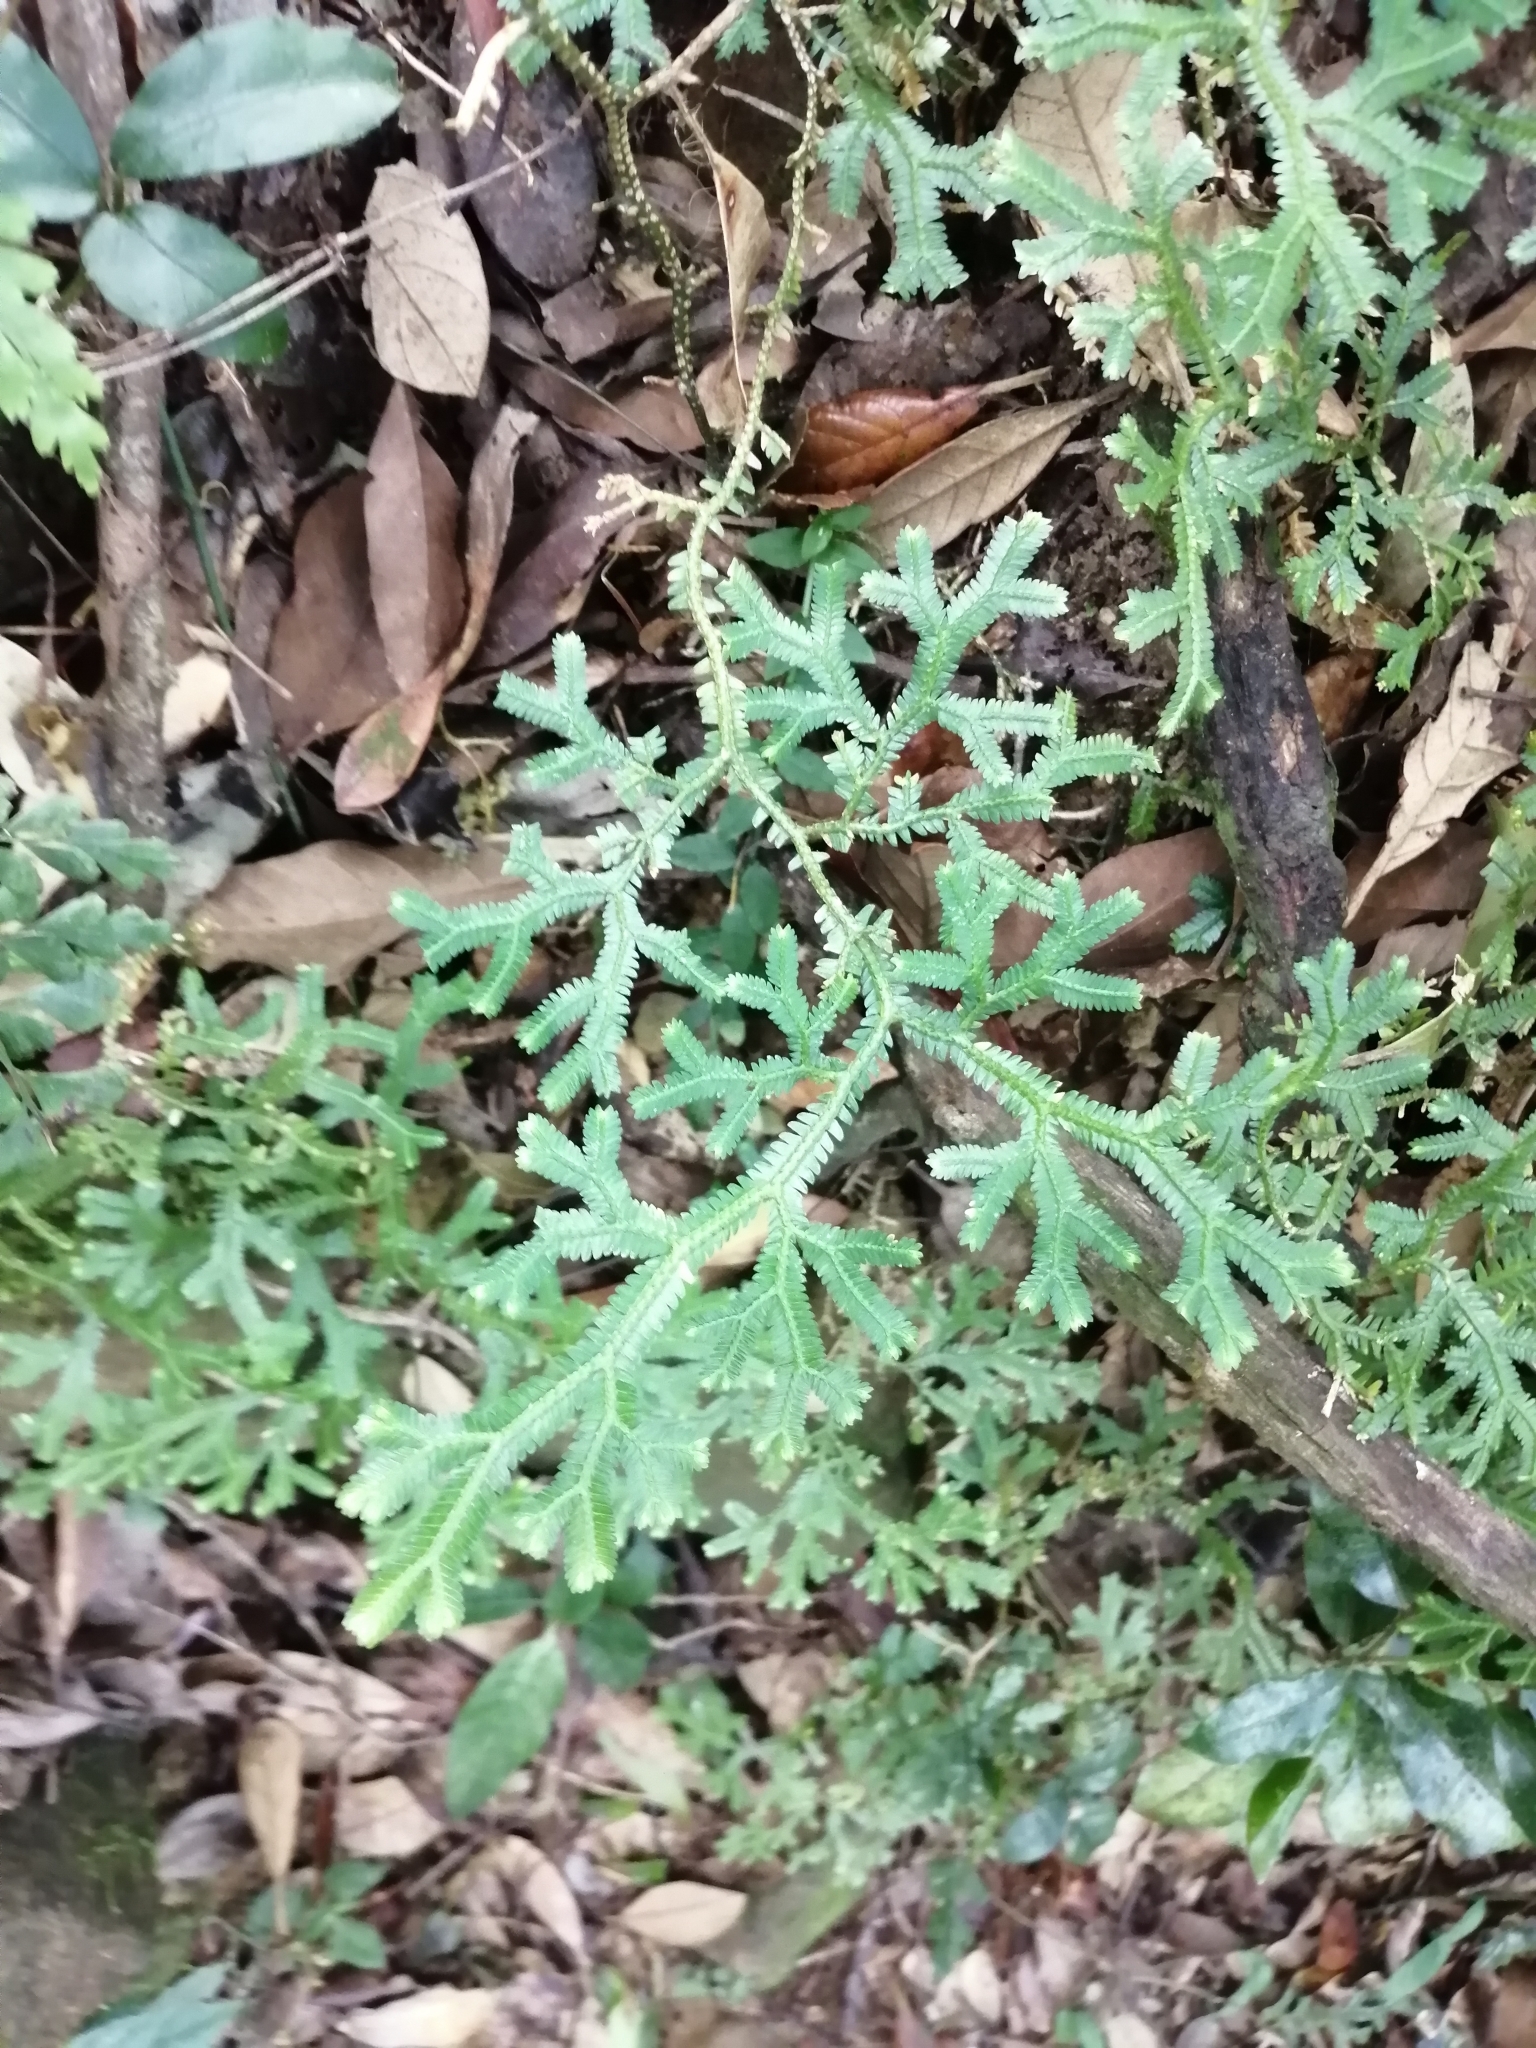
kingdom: Plantae
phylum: Tracheophyta
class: Lycopodiopsida
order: Selaginellales
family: Selaginellaceae
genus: Selaginella
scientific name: Selaginella doederleinii
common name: Greater selaginella
